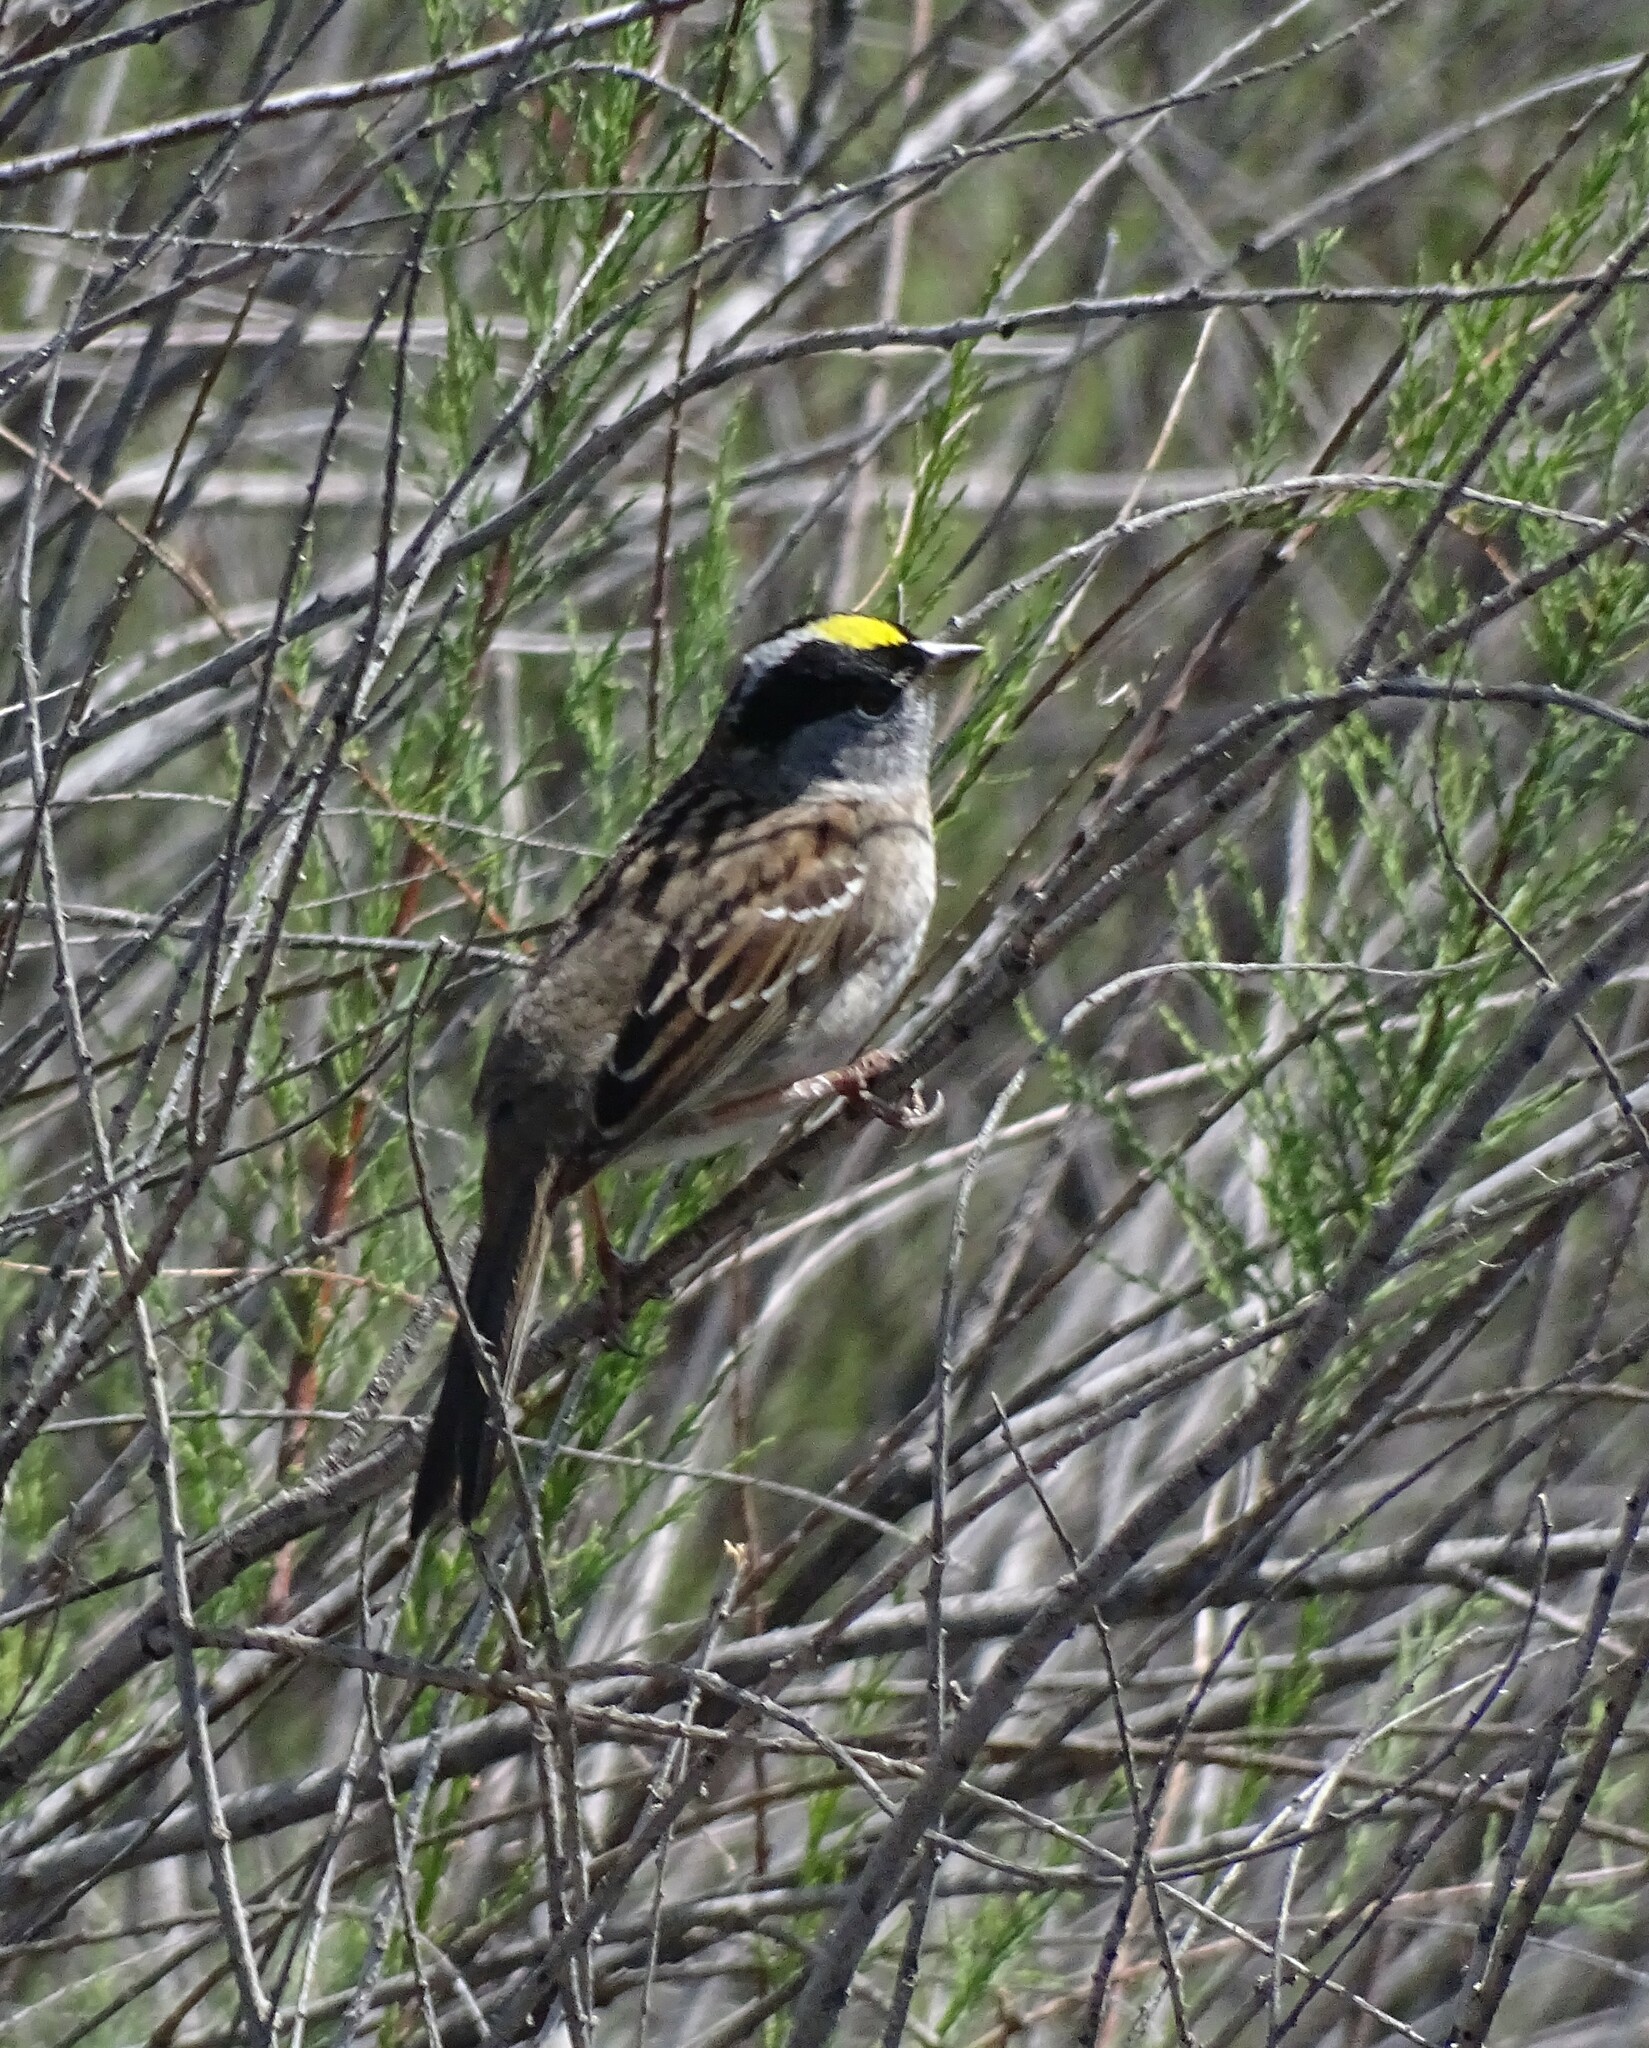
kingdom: Animalia
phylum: Chordata
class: Aves
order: Passeriformes
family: Passerellidae
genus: Zonotrichia
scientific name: Zonotrichia atricapilla
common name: Golden-crowned sparrow
